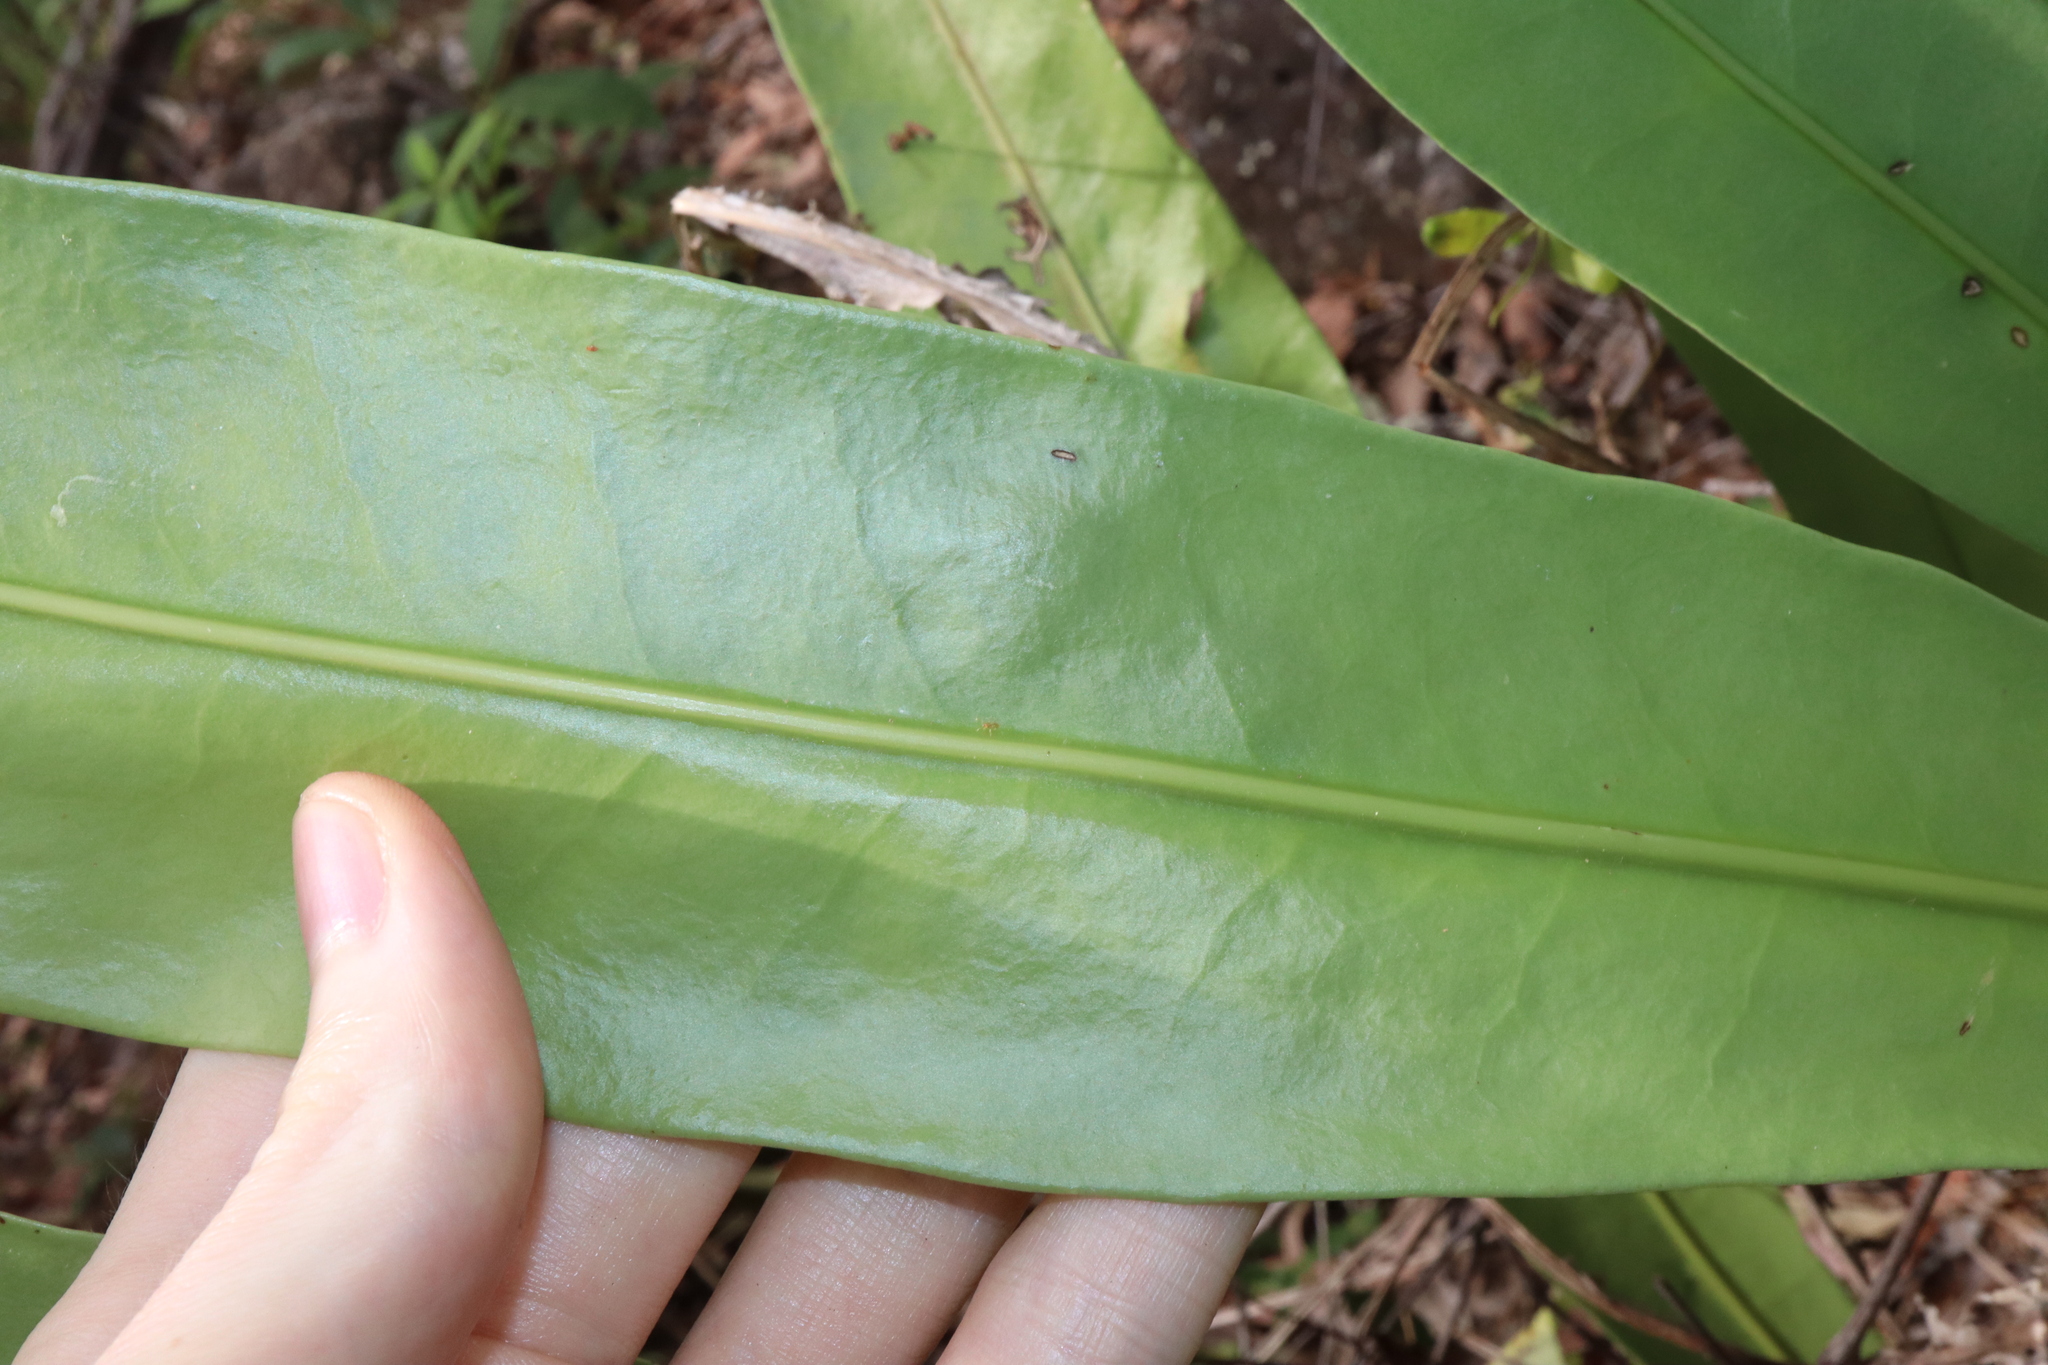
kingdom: Plantae
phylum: Tracheophyta
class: Polypodiopsida
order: Polypodiales
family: Polypodiaceae
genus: Microsorum
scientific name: Microsorum punctatum
